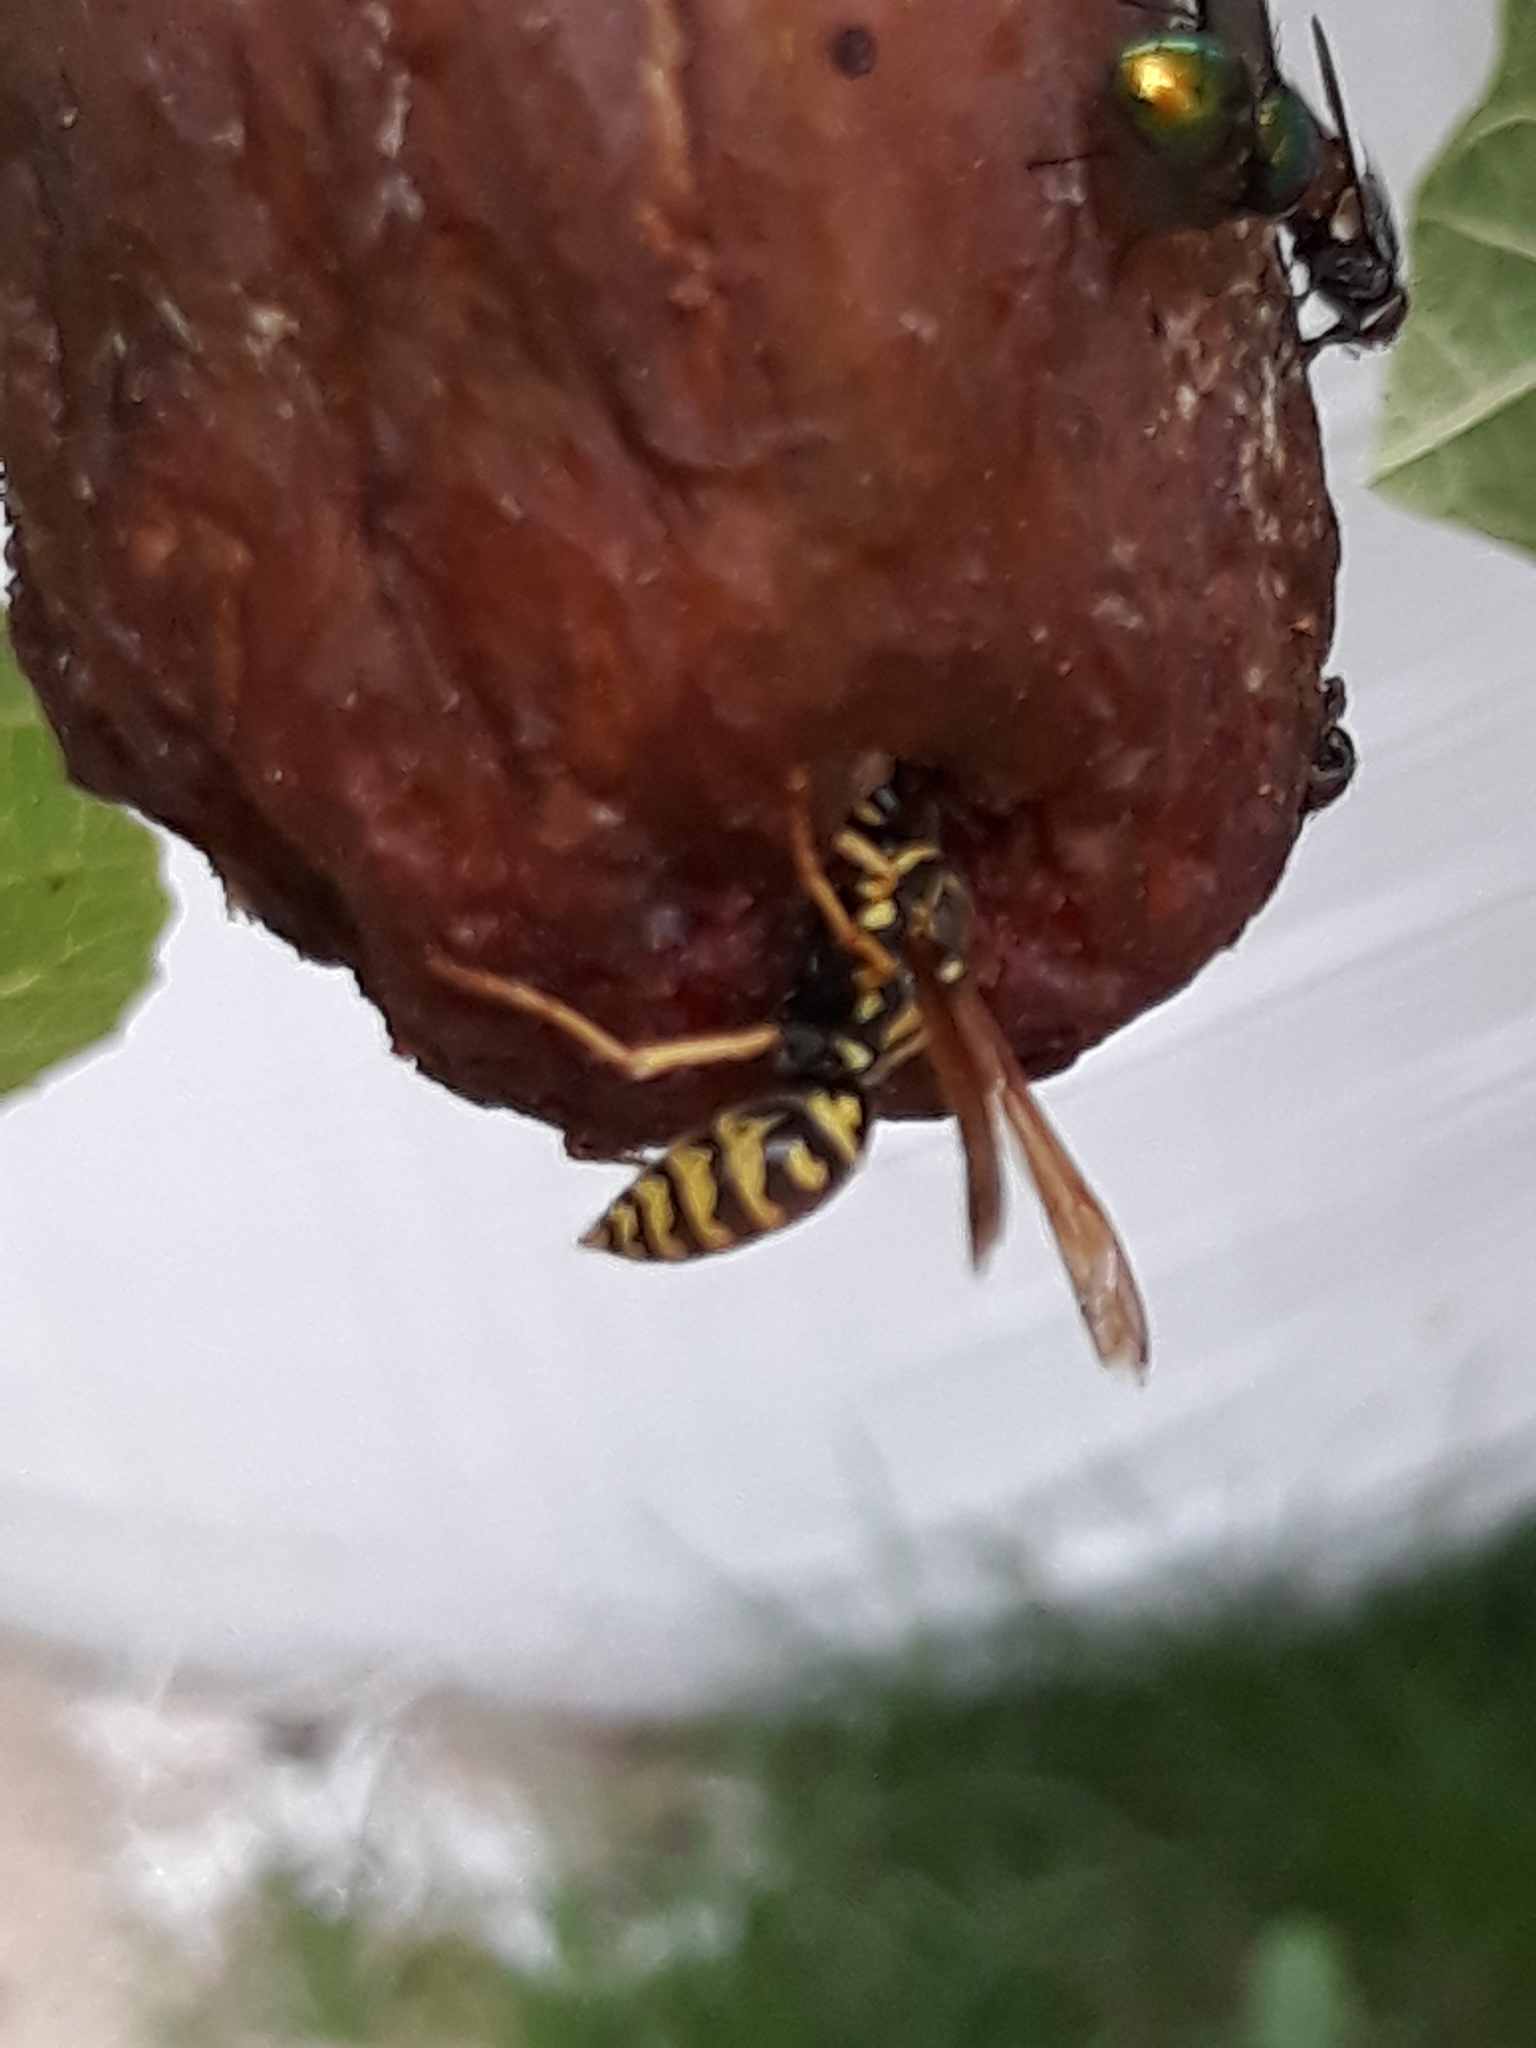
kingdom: Animalia
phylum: Arthropoda
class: Insecta
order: Hymenoptera
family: Eumenidae
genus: Polistes
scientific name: Polistes dominula
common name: Paper wasp
